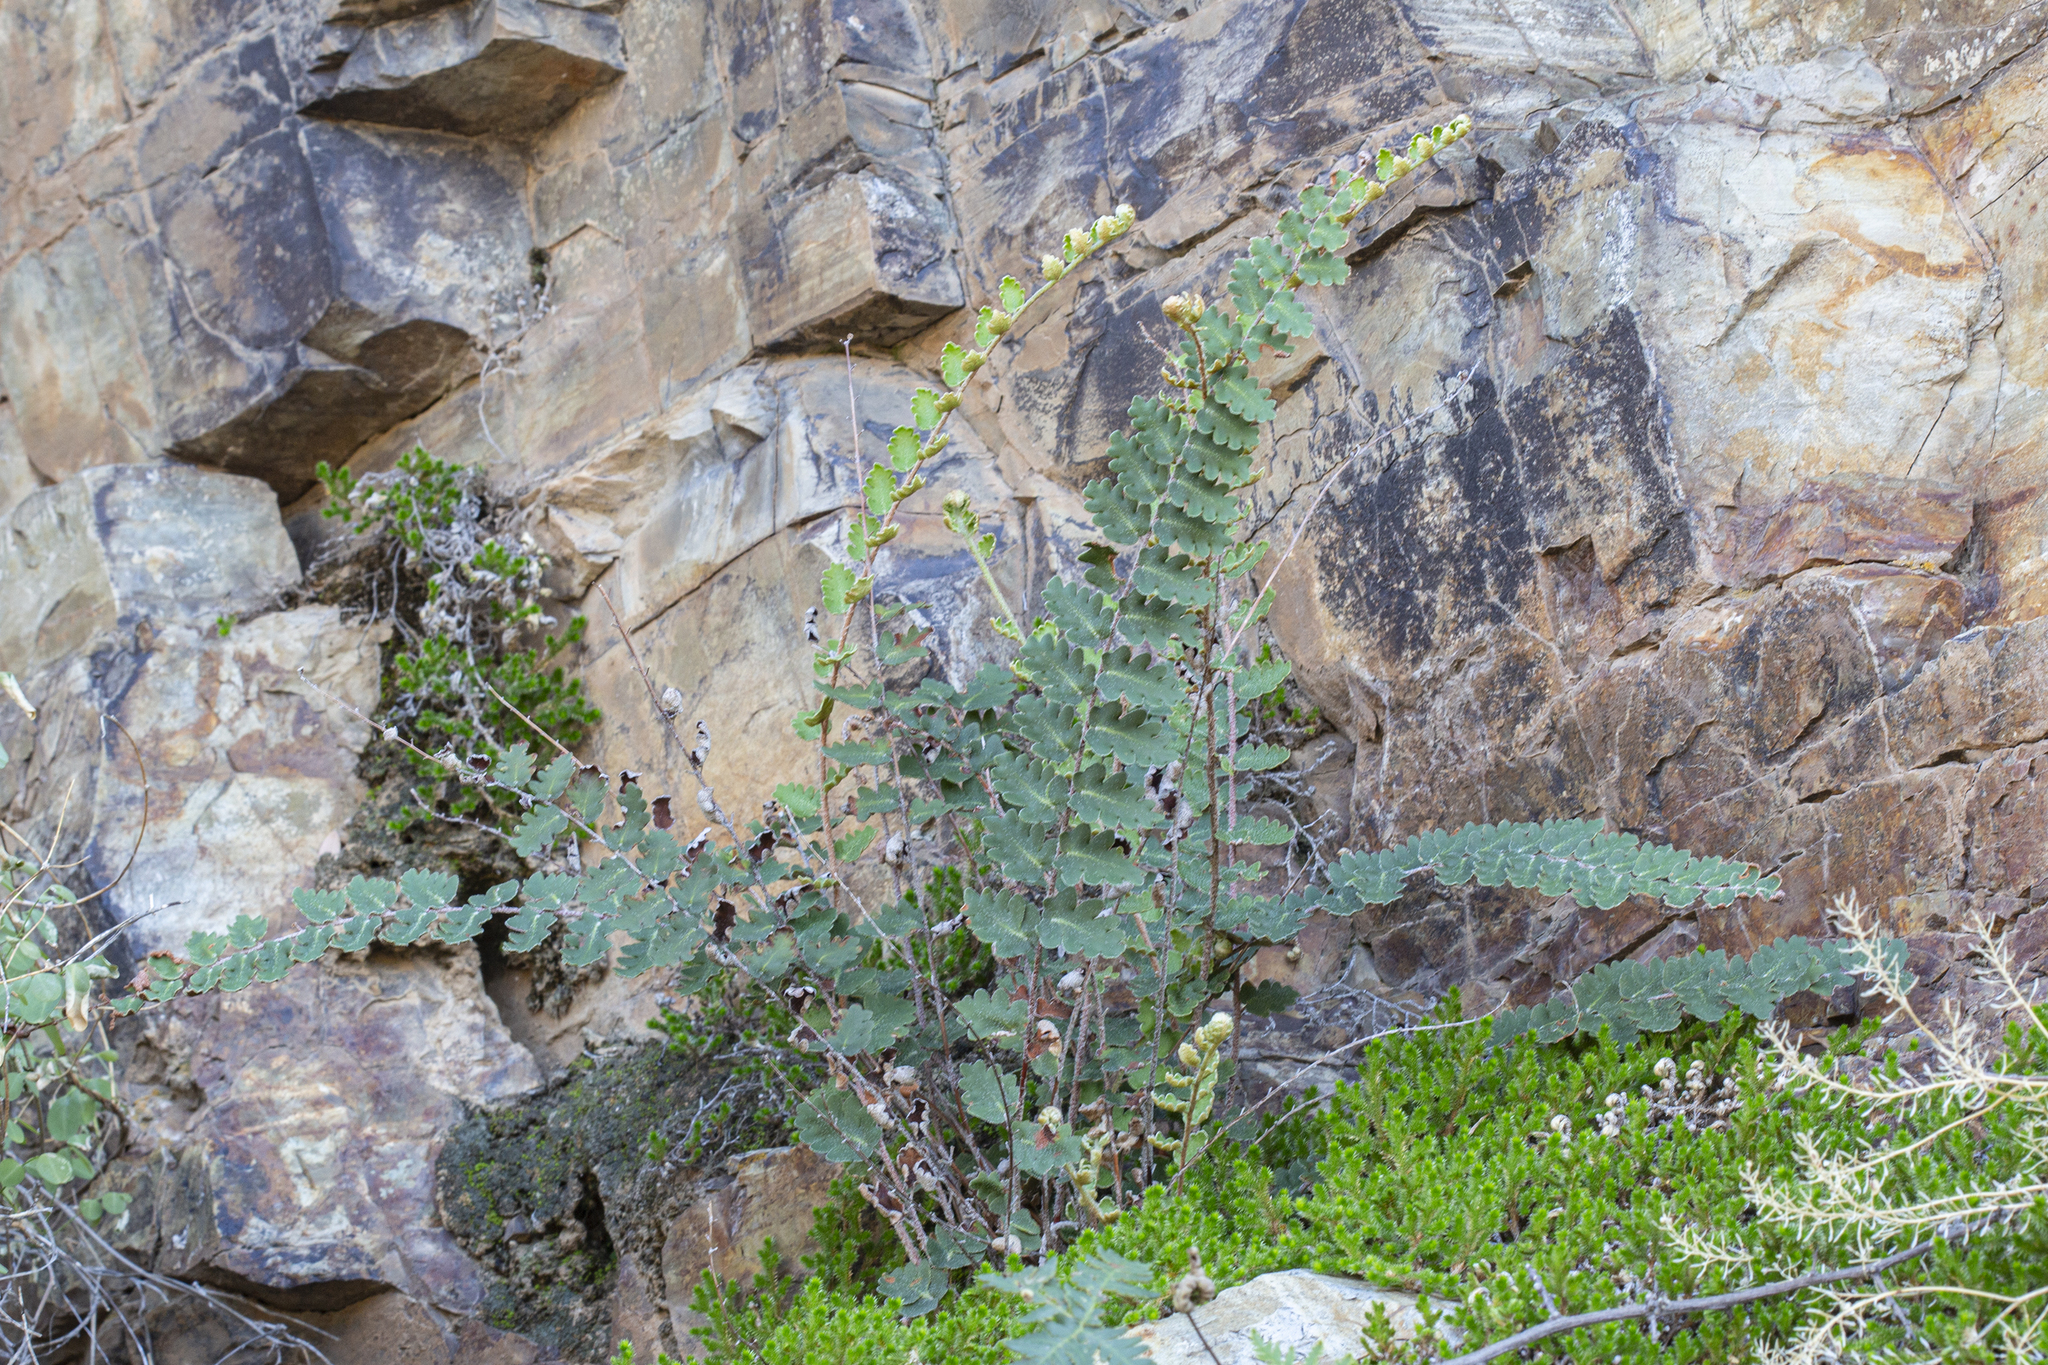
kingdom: Plantae
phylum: Tracheophyta
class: Polypodiopsida
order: Polypodiales
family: Pteridaceae
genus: Astrolepis
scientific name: Astrolepis sinuata
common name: Wavy scaly cloakfern
